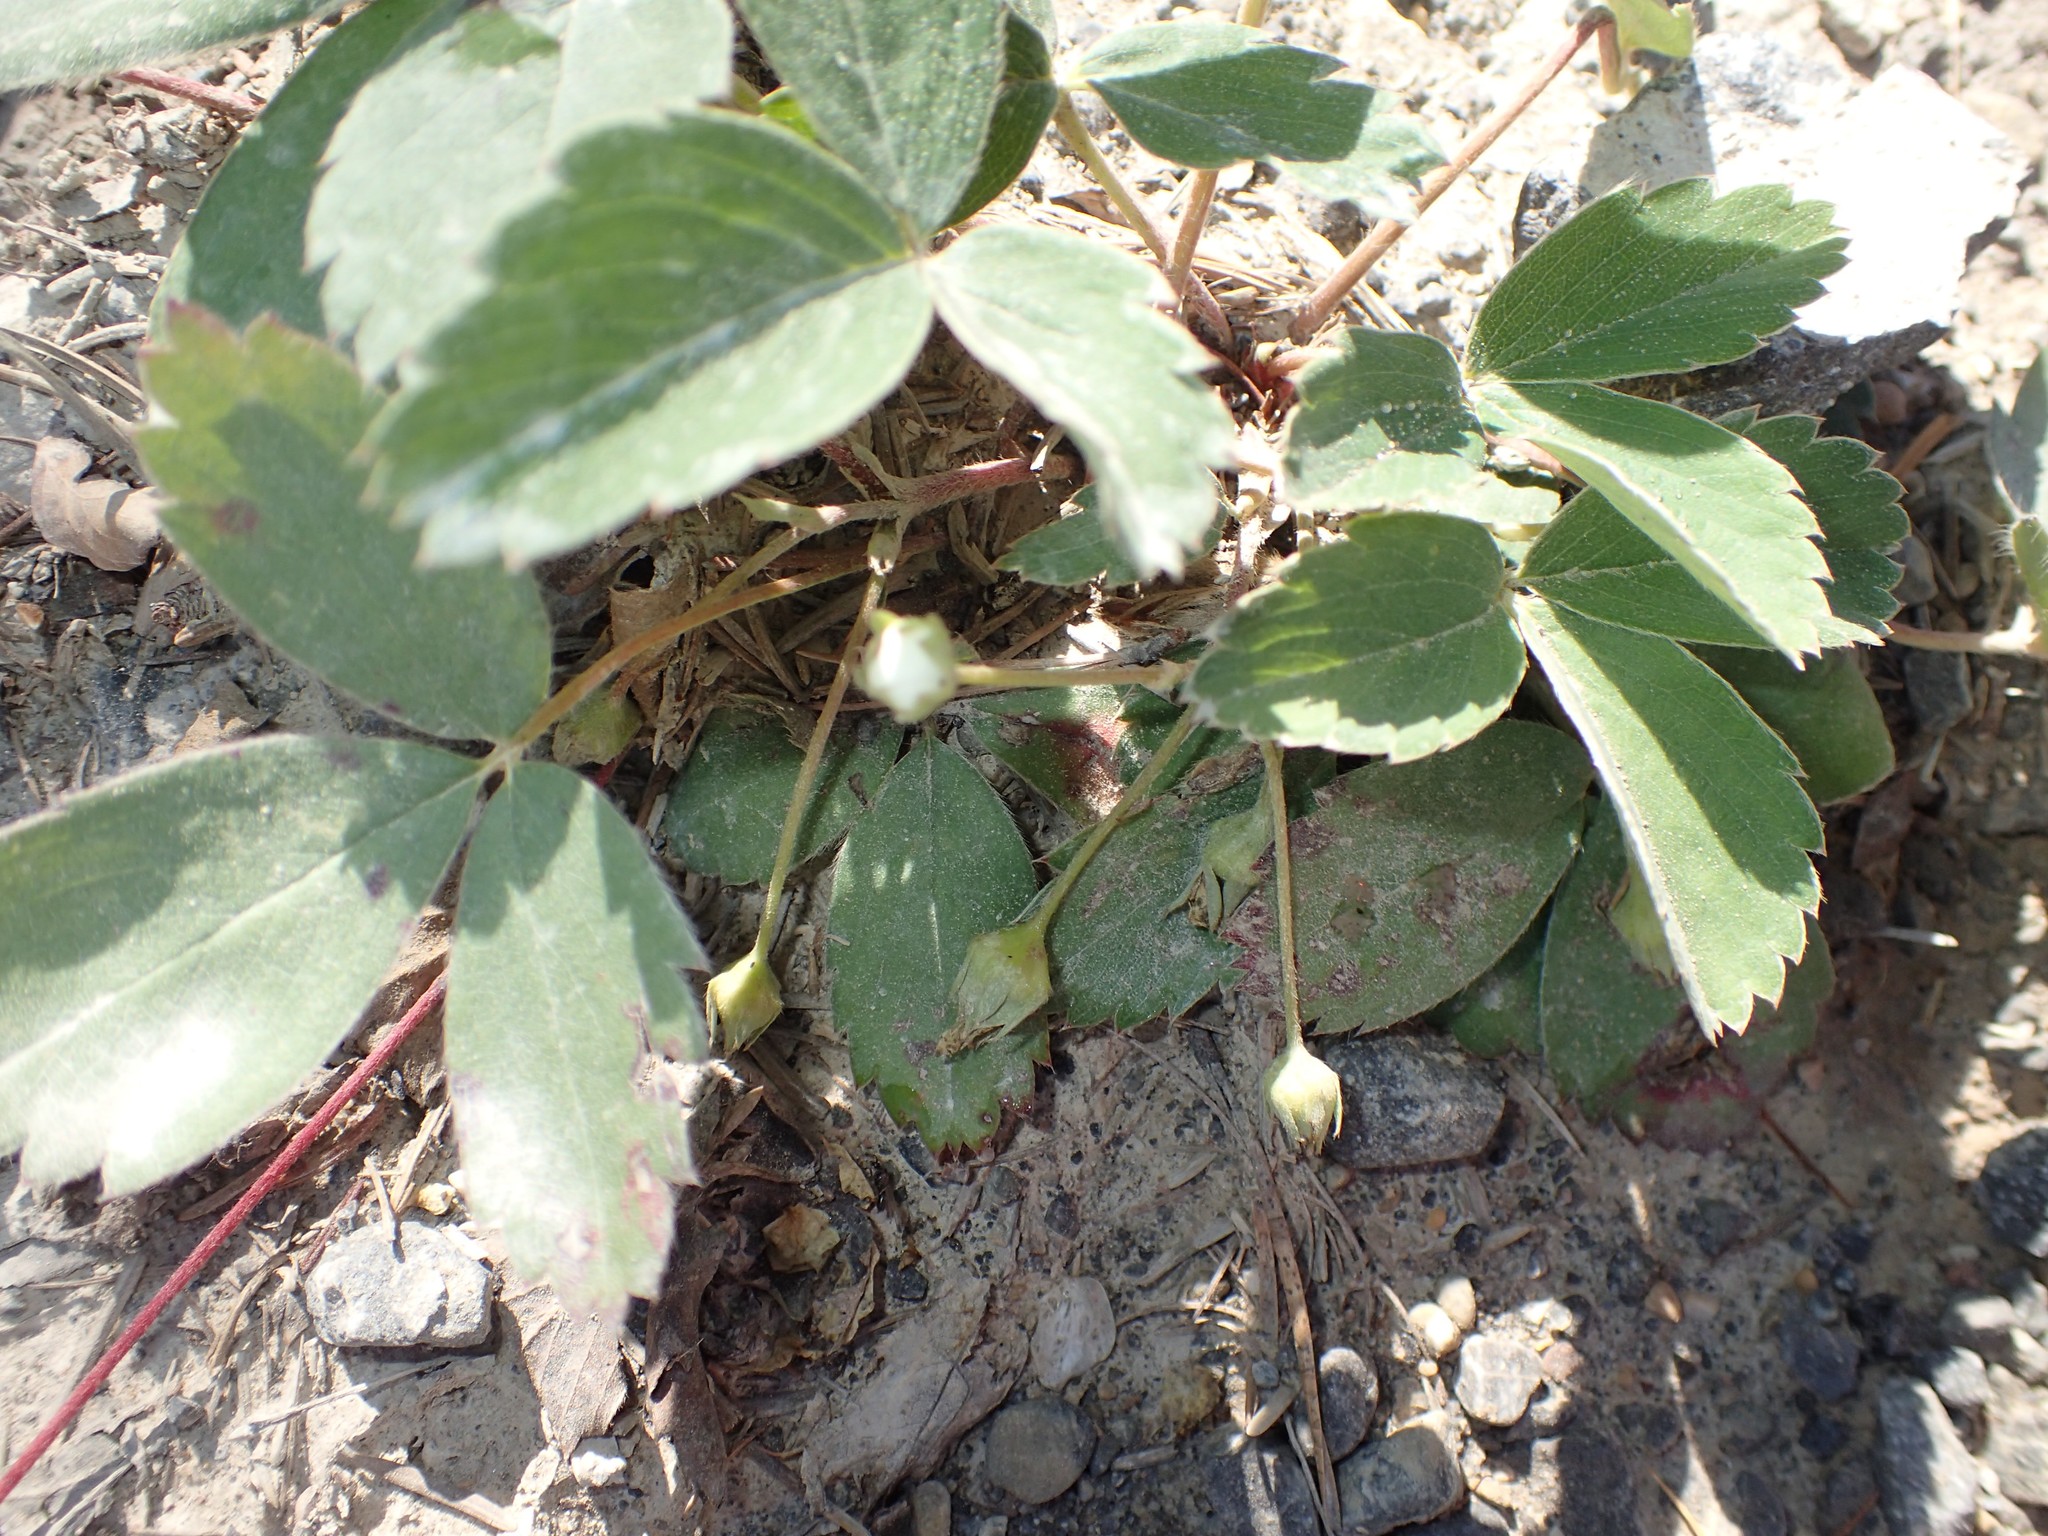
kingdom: Plantae
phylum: Tracheophyta
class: Magnoliopsida
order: Rosales
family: Rosaceae
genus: Fragaria
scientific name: Fragaria virginiana
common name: Thickleaved wild strawberry
